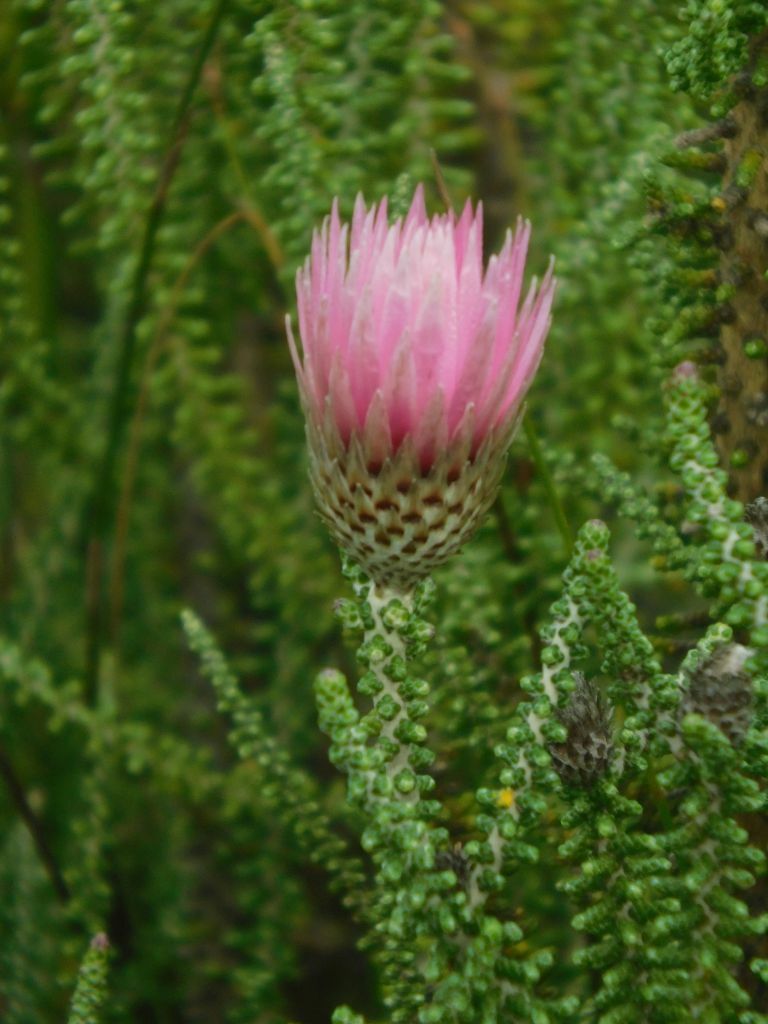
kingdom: Plantae
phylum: Tracheophyta
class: Magnoliopsida
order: Asterales
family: Asteraceae
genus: Phaenocoma
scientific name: Phaenocoma prolifera
